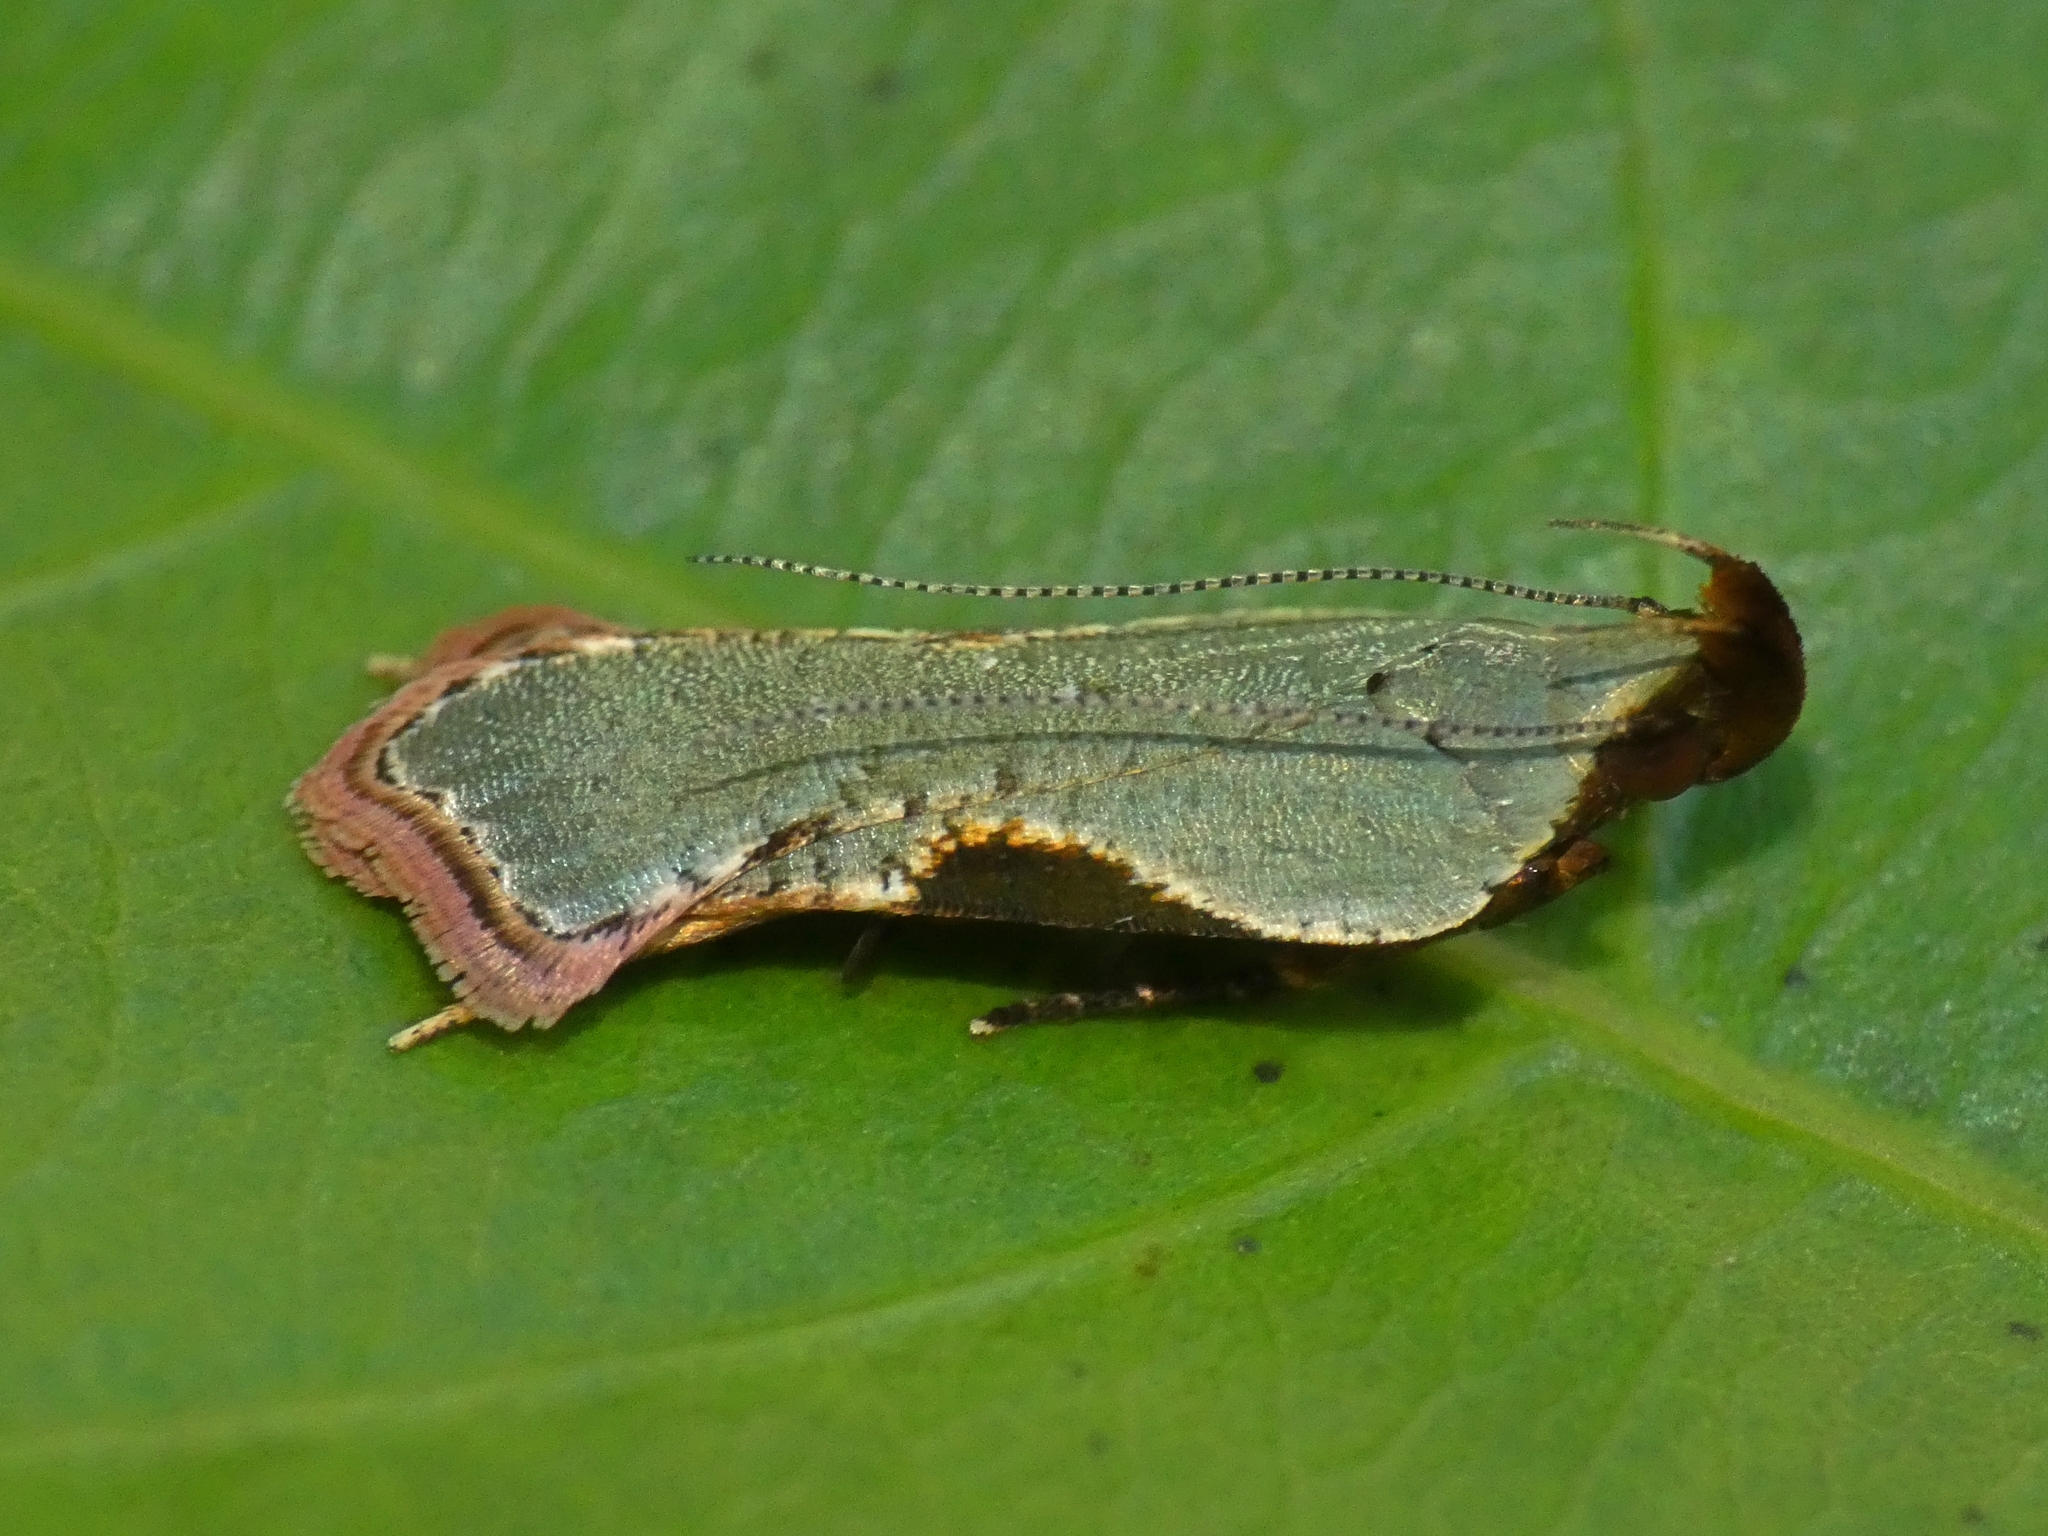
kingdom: Animalia
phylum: Arthropoda
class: Insecta
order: Lepidoptera
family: Gelechiidae
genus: Dichomeris
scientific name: Dichomeris ochreoviridella
